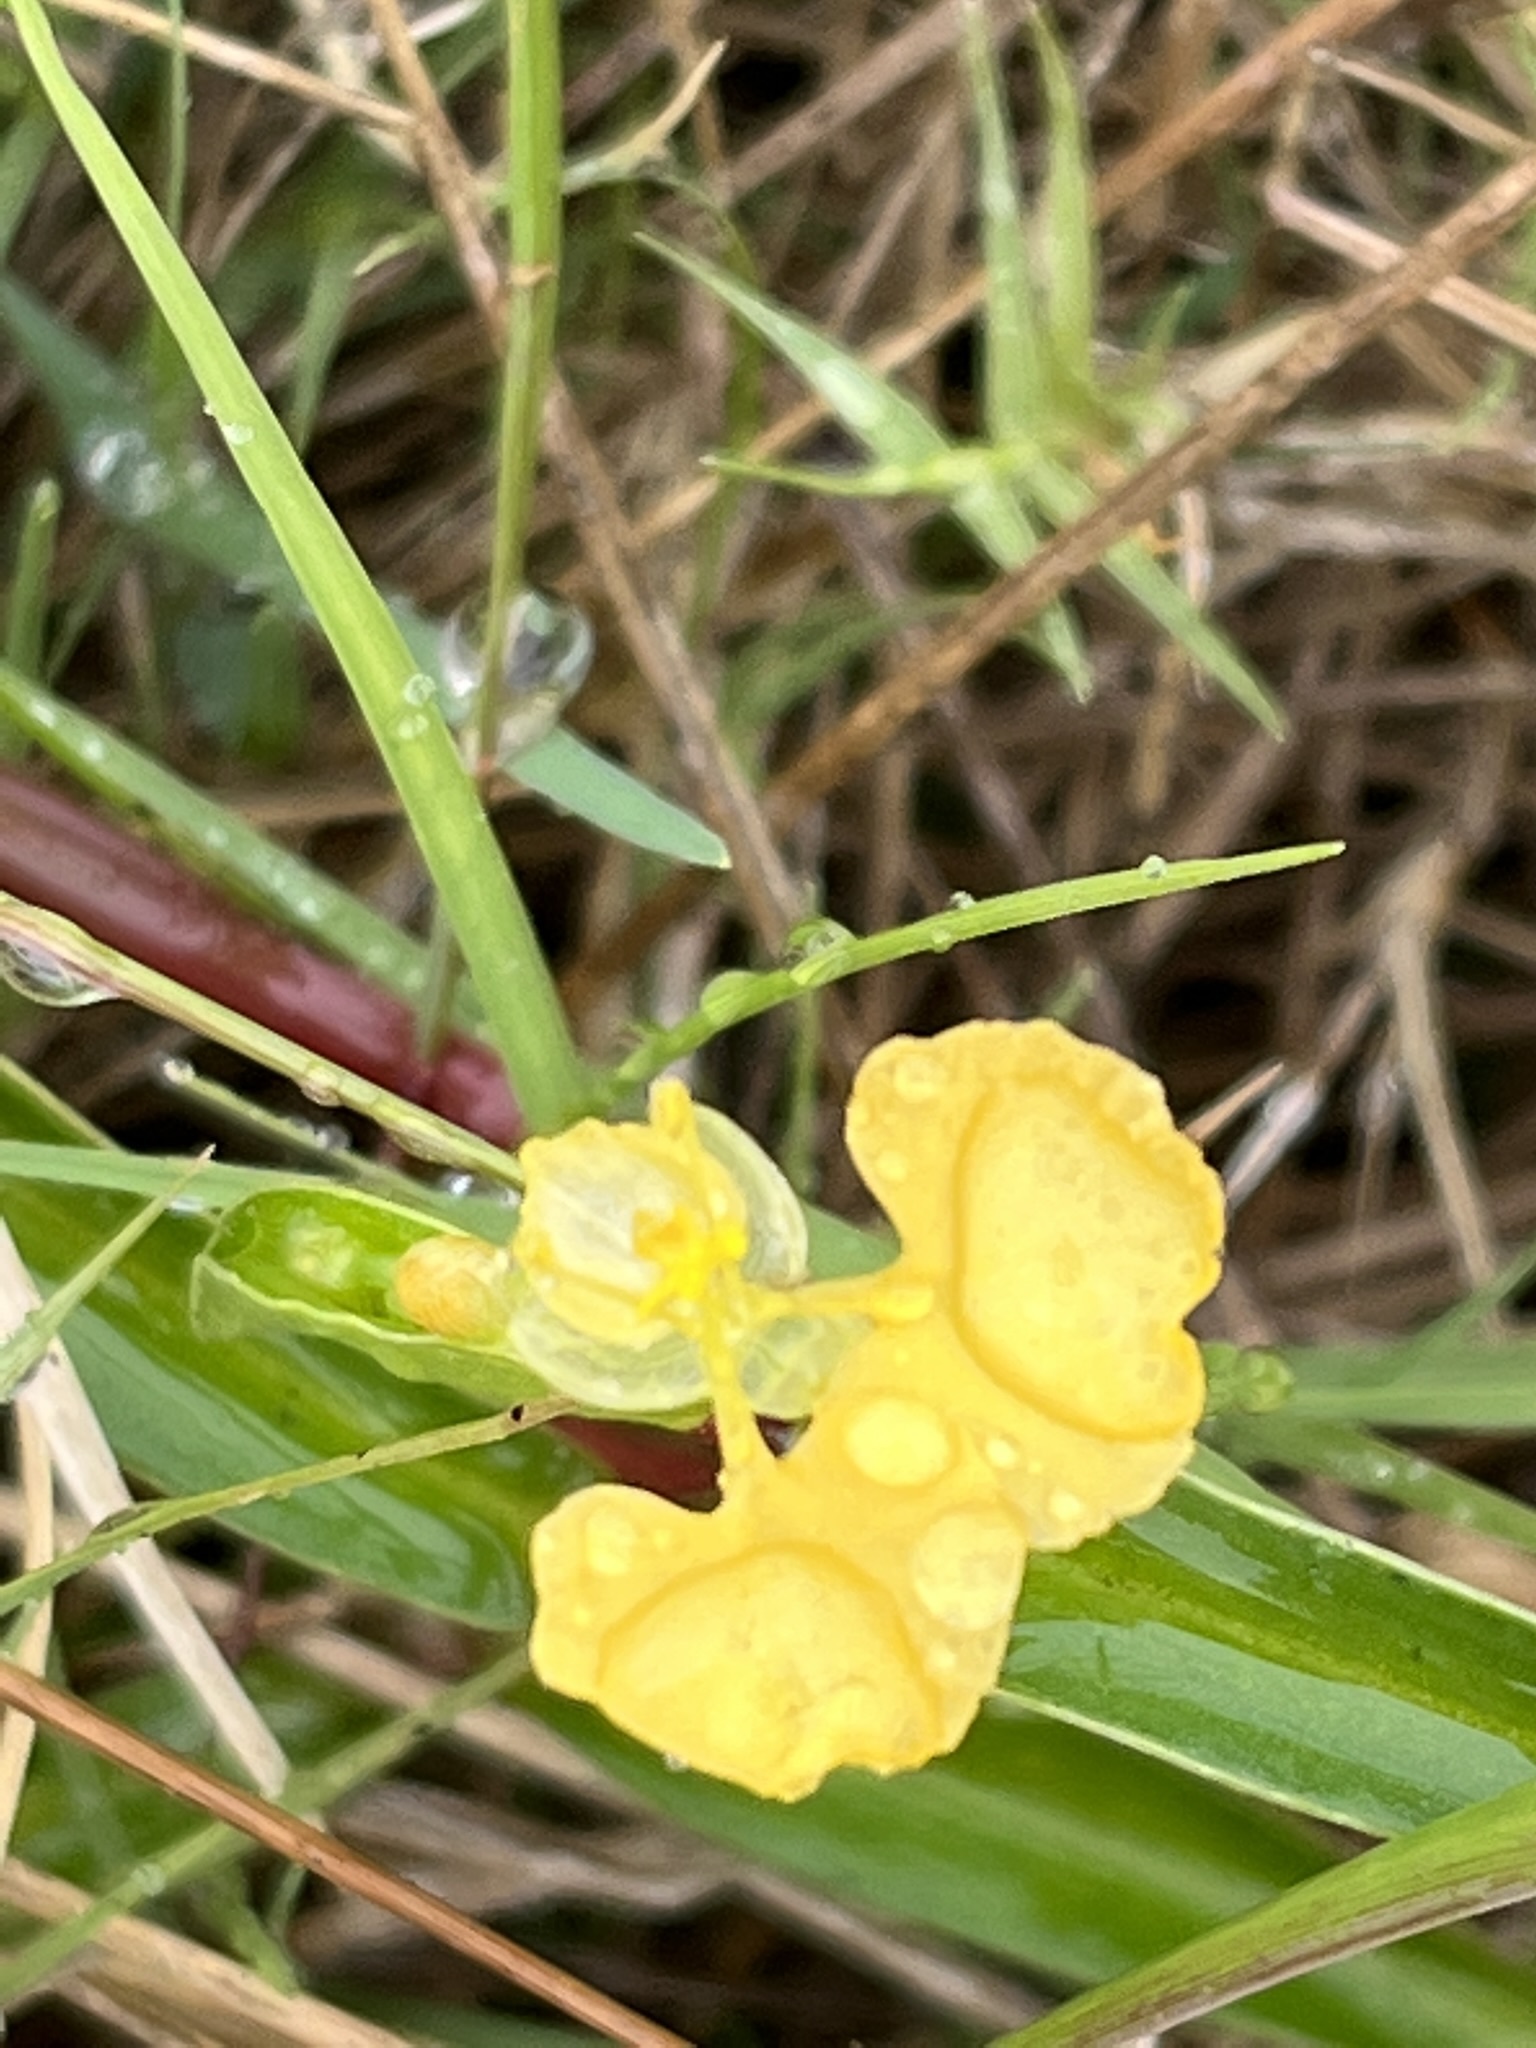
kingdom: Plantae
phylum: Tracheophyta
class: Liliopsida
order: Commelinales
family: Commelinaceae
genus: Commelina
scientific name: Commelina africana
